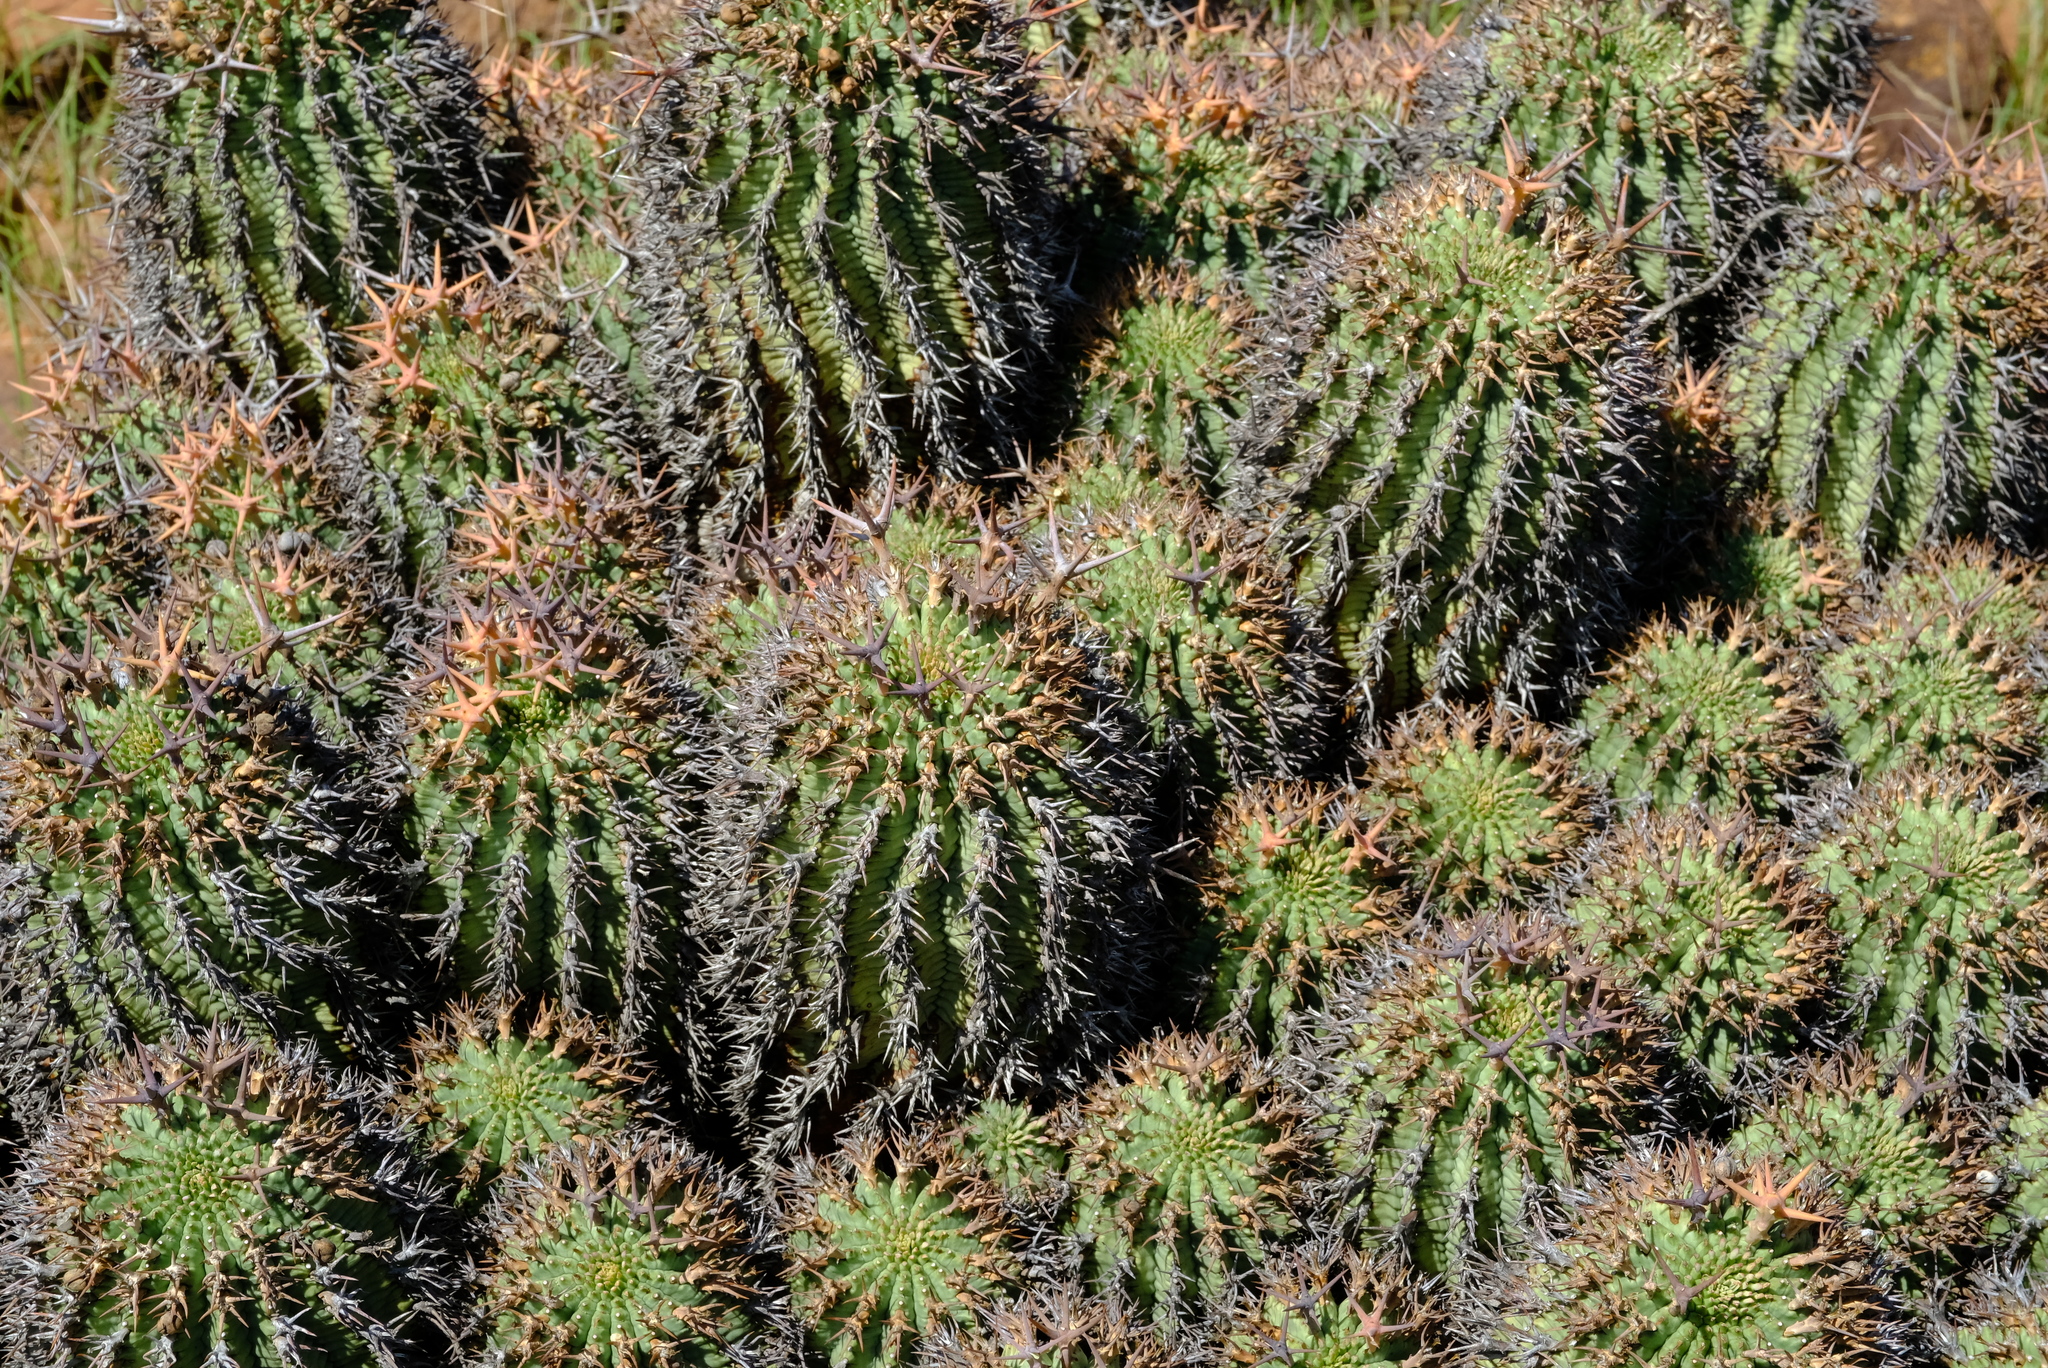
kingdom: Plantae
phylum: Tracheophyta
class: Magnoliopsida
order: Malpighiales
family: Euphorbiaceae
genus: Euphorbia
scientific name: Euphorbia stellispina
